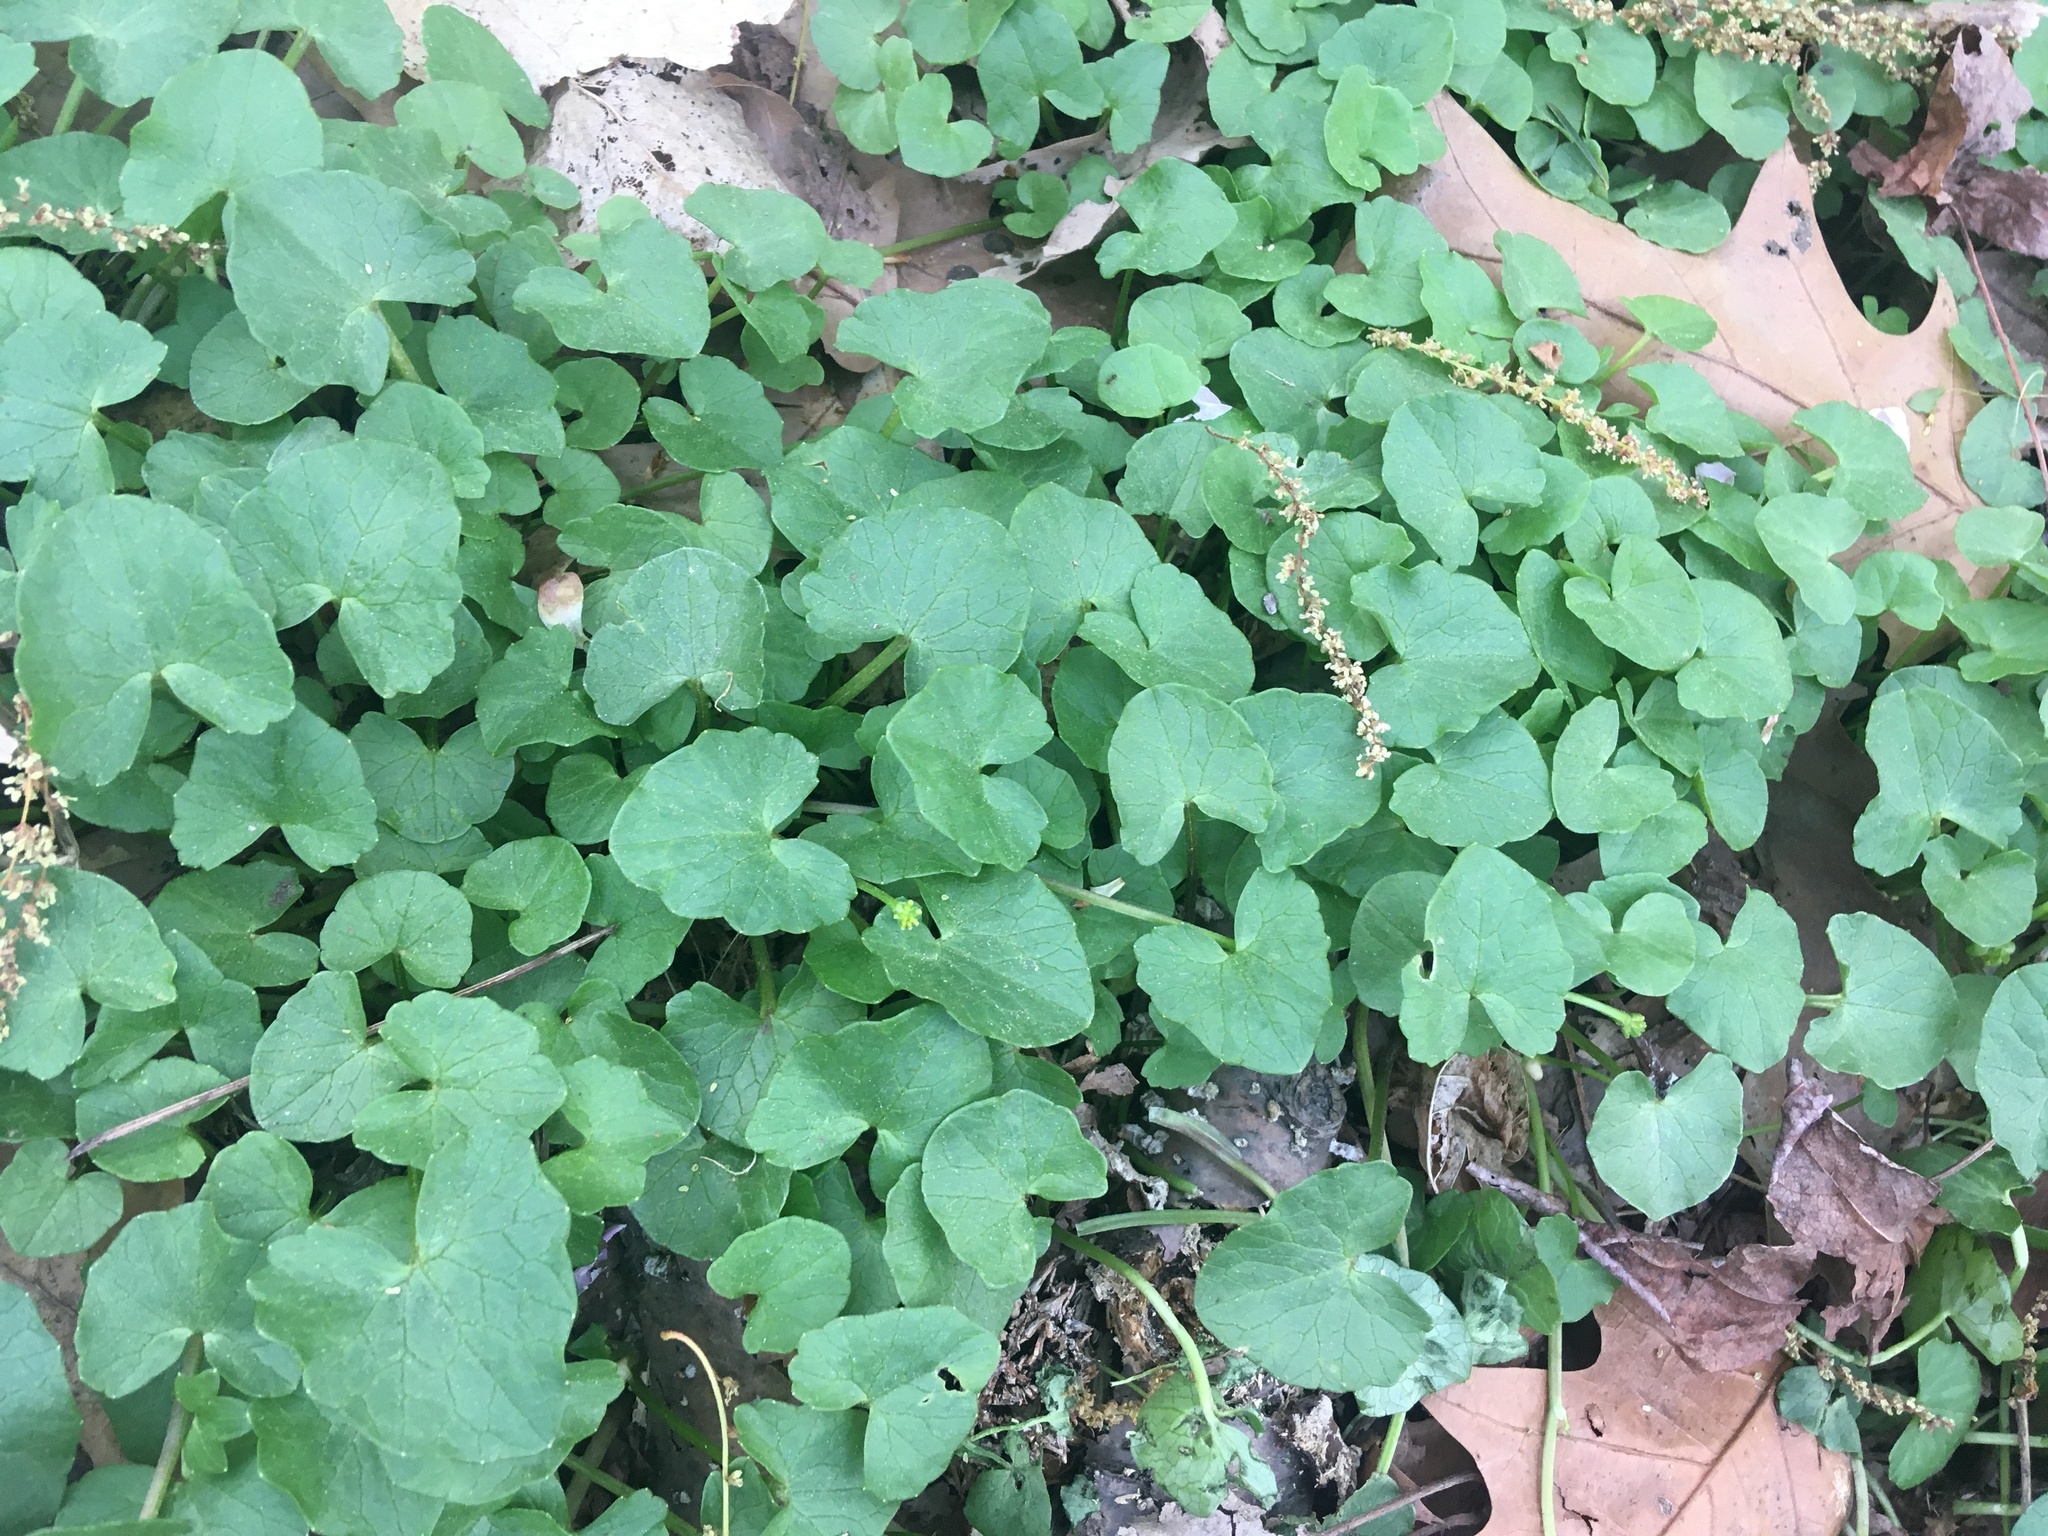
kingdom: Plantae
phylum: Tracheophyta
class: Magnoliopsida
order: Ranunculales
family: Ranunculaceae
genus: Ficaria
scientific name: Ficaria verna
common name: Lesser celandine
